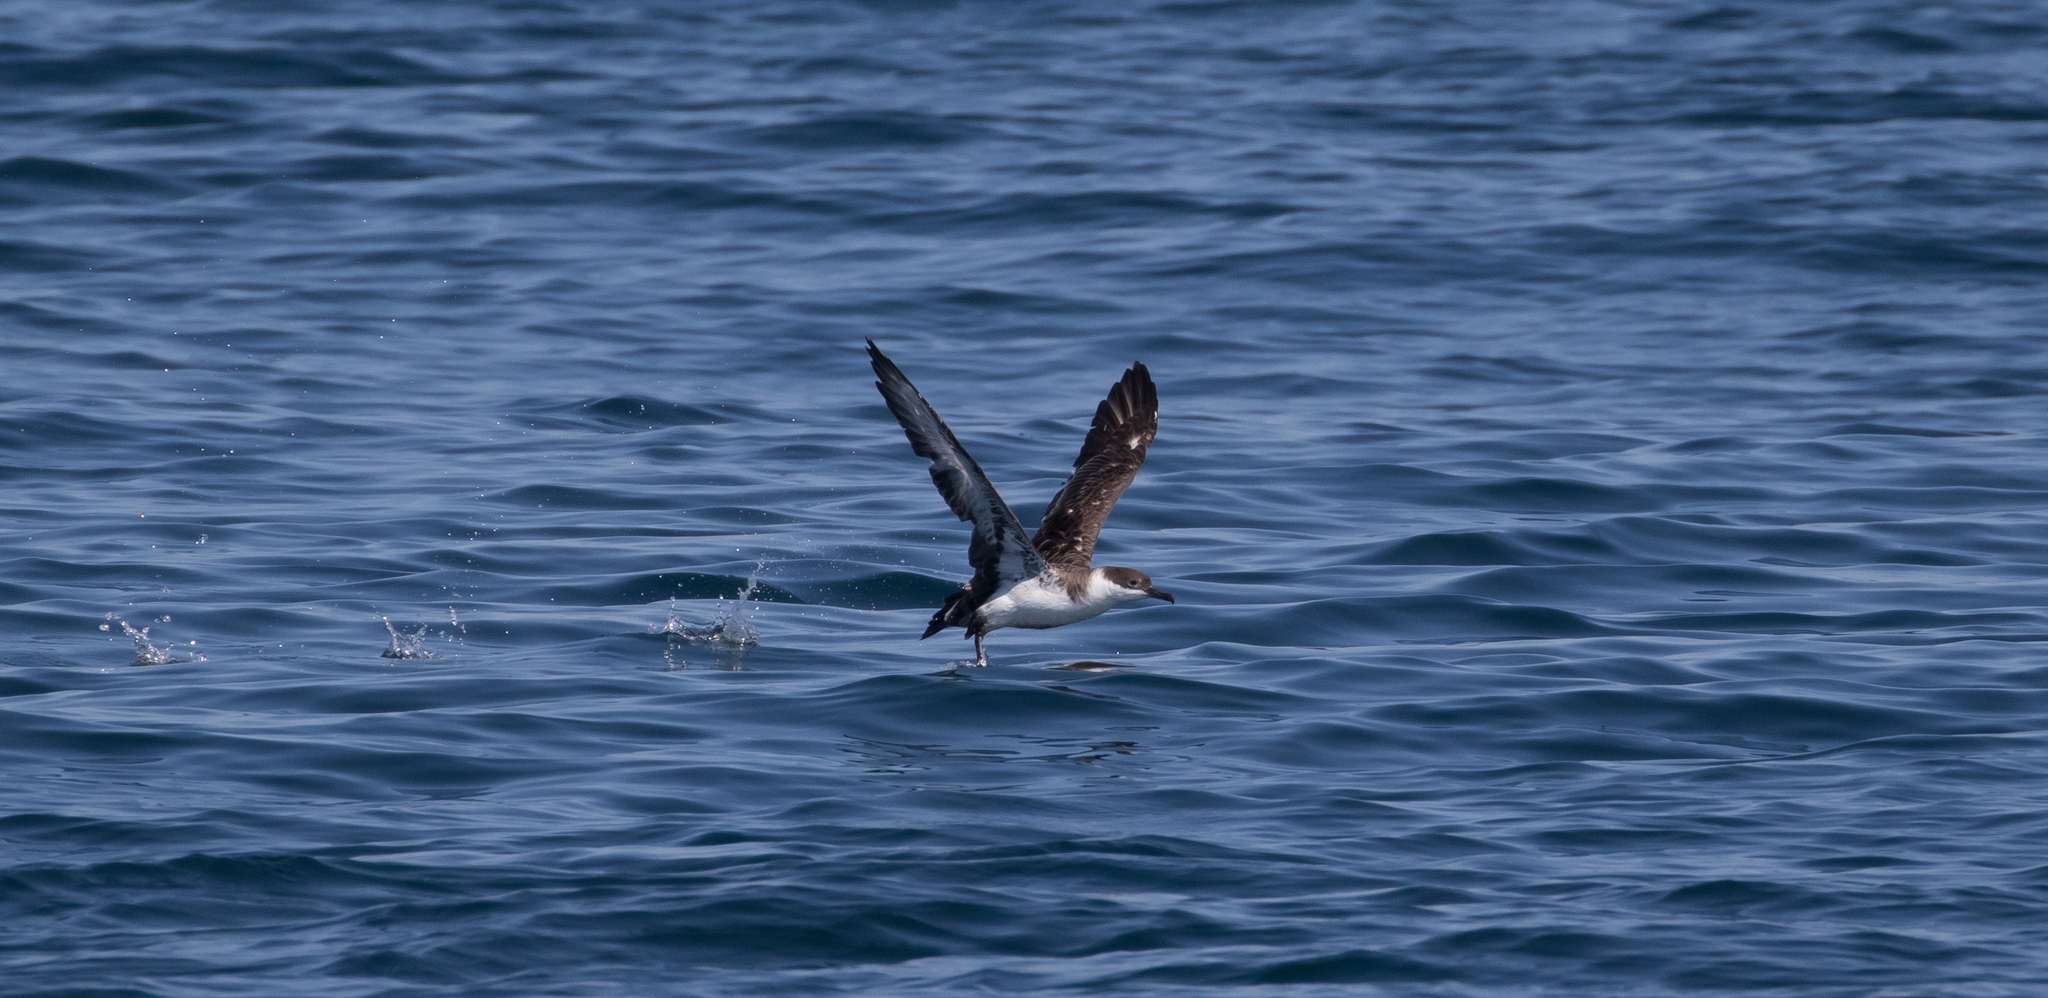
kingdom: Animalia
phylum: Chordata
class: Aves
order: Procellariiformes
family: Procellariidae
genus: Puffinus
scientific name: Puffinus gravis
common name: Great shearwater
